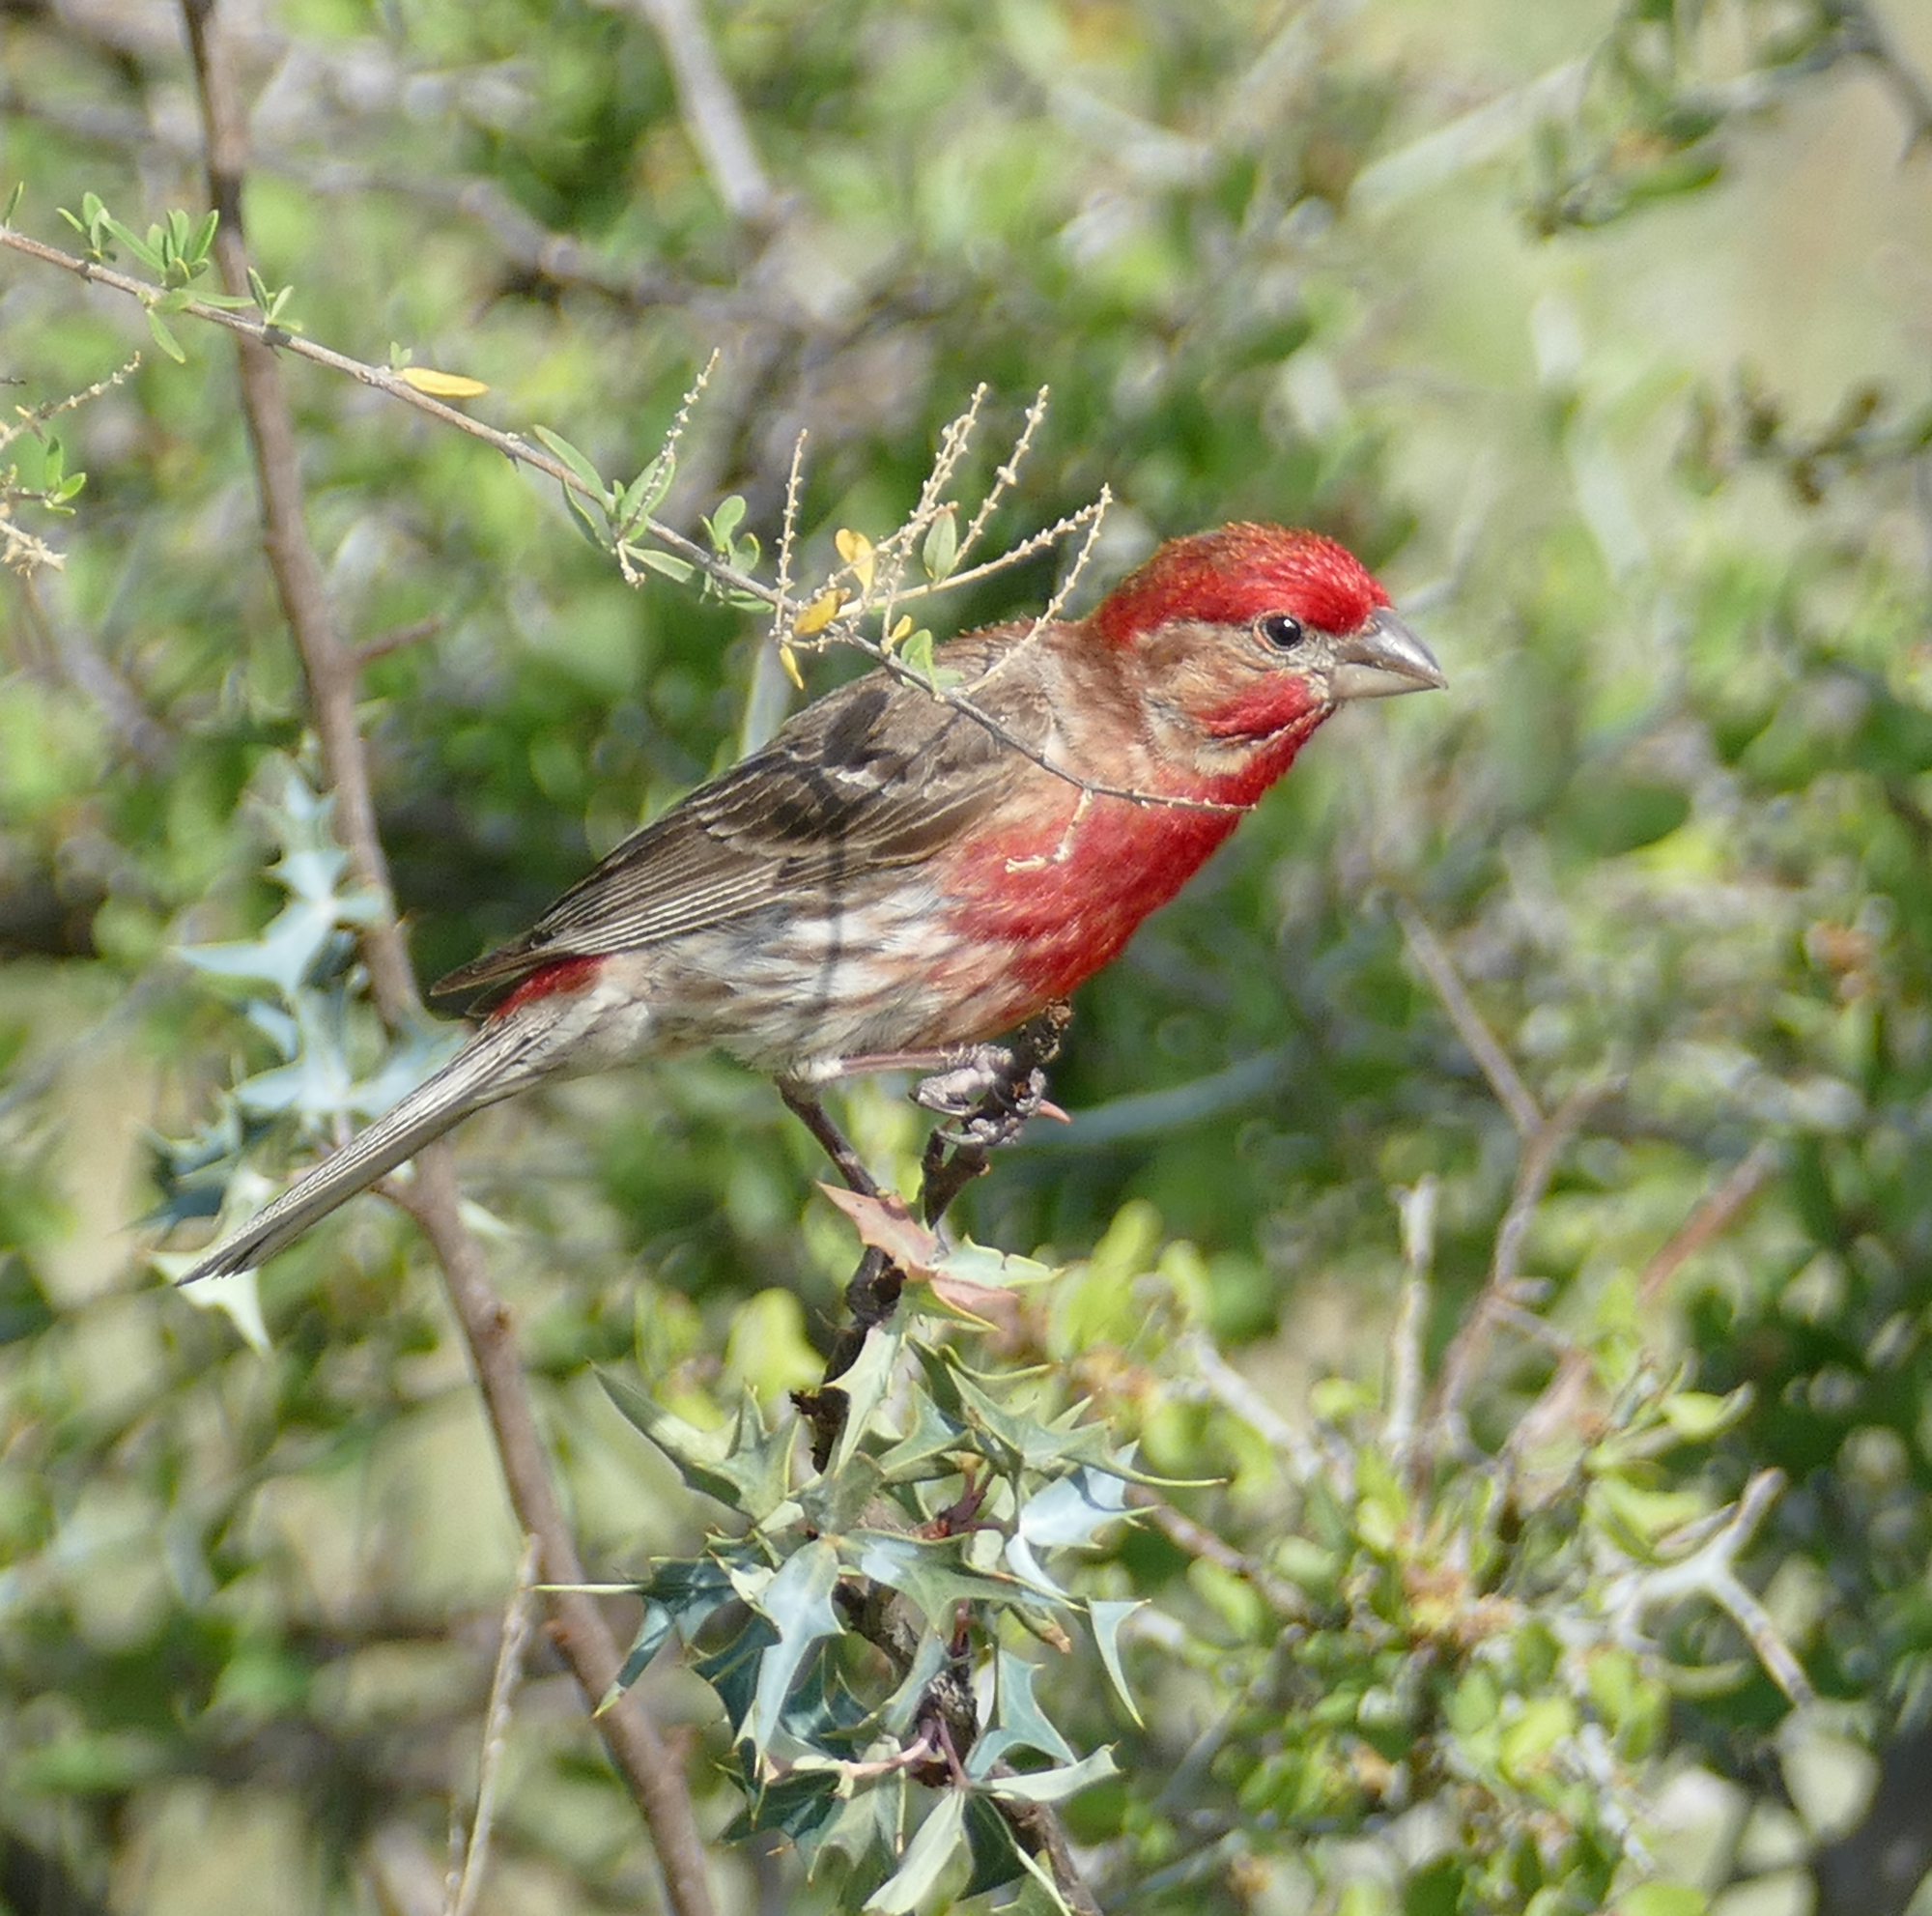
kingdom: Animalia
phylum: Chordata
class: Aves
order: Passeriformes
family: Fringillidae
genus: Haemorhous
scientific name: Haemorhous mexicanus
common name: House finch
